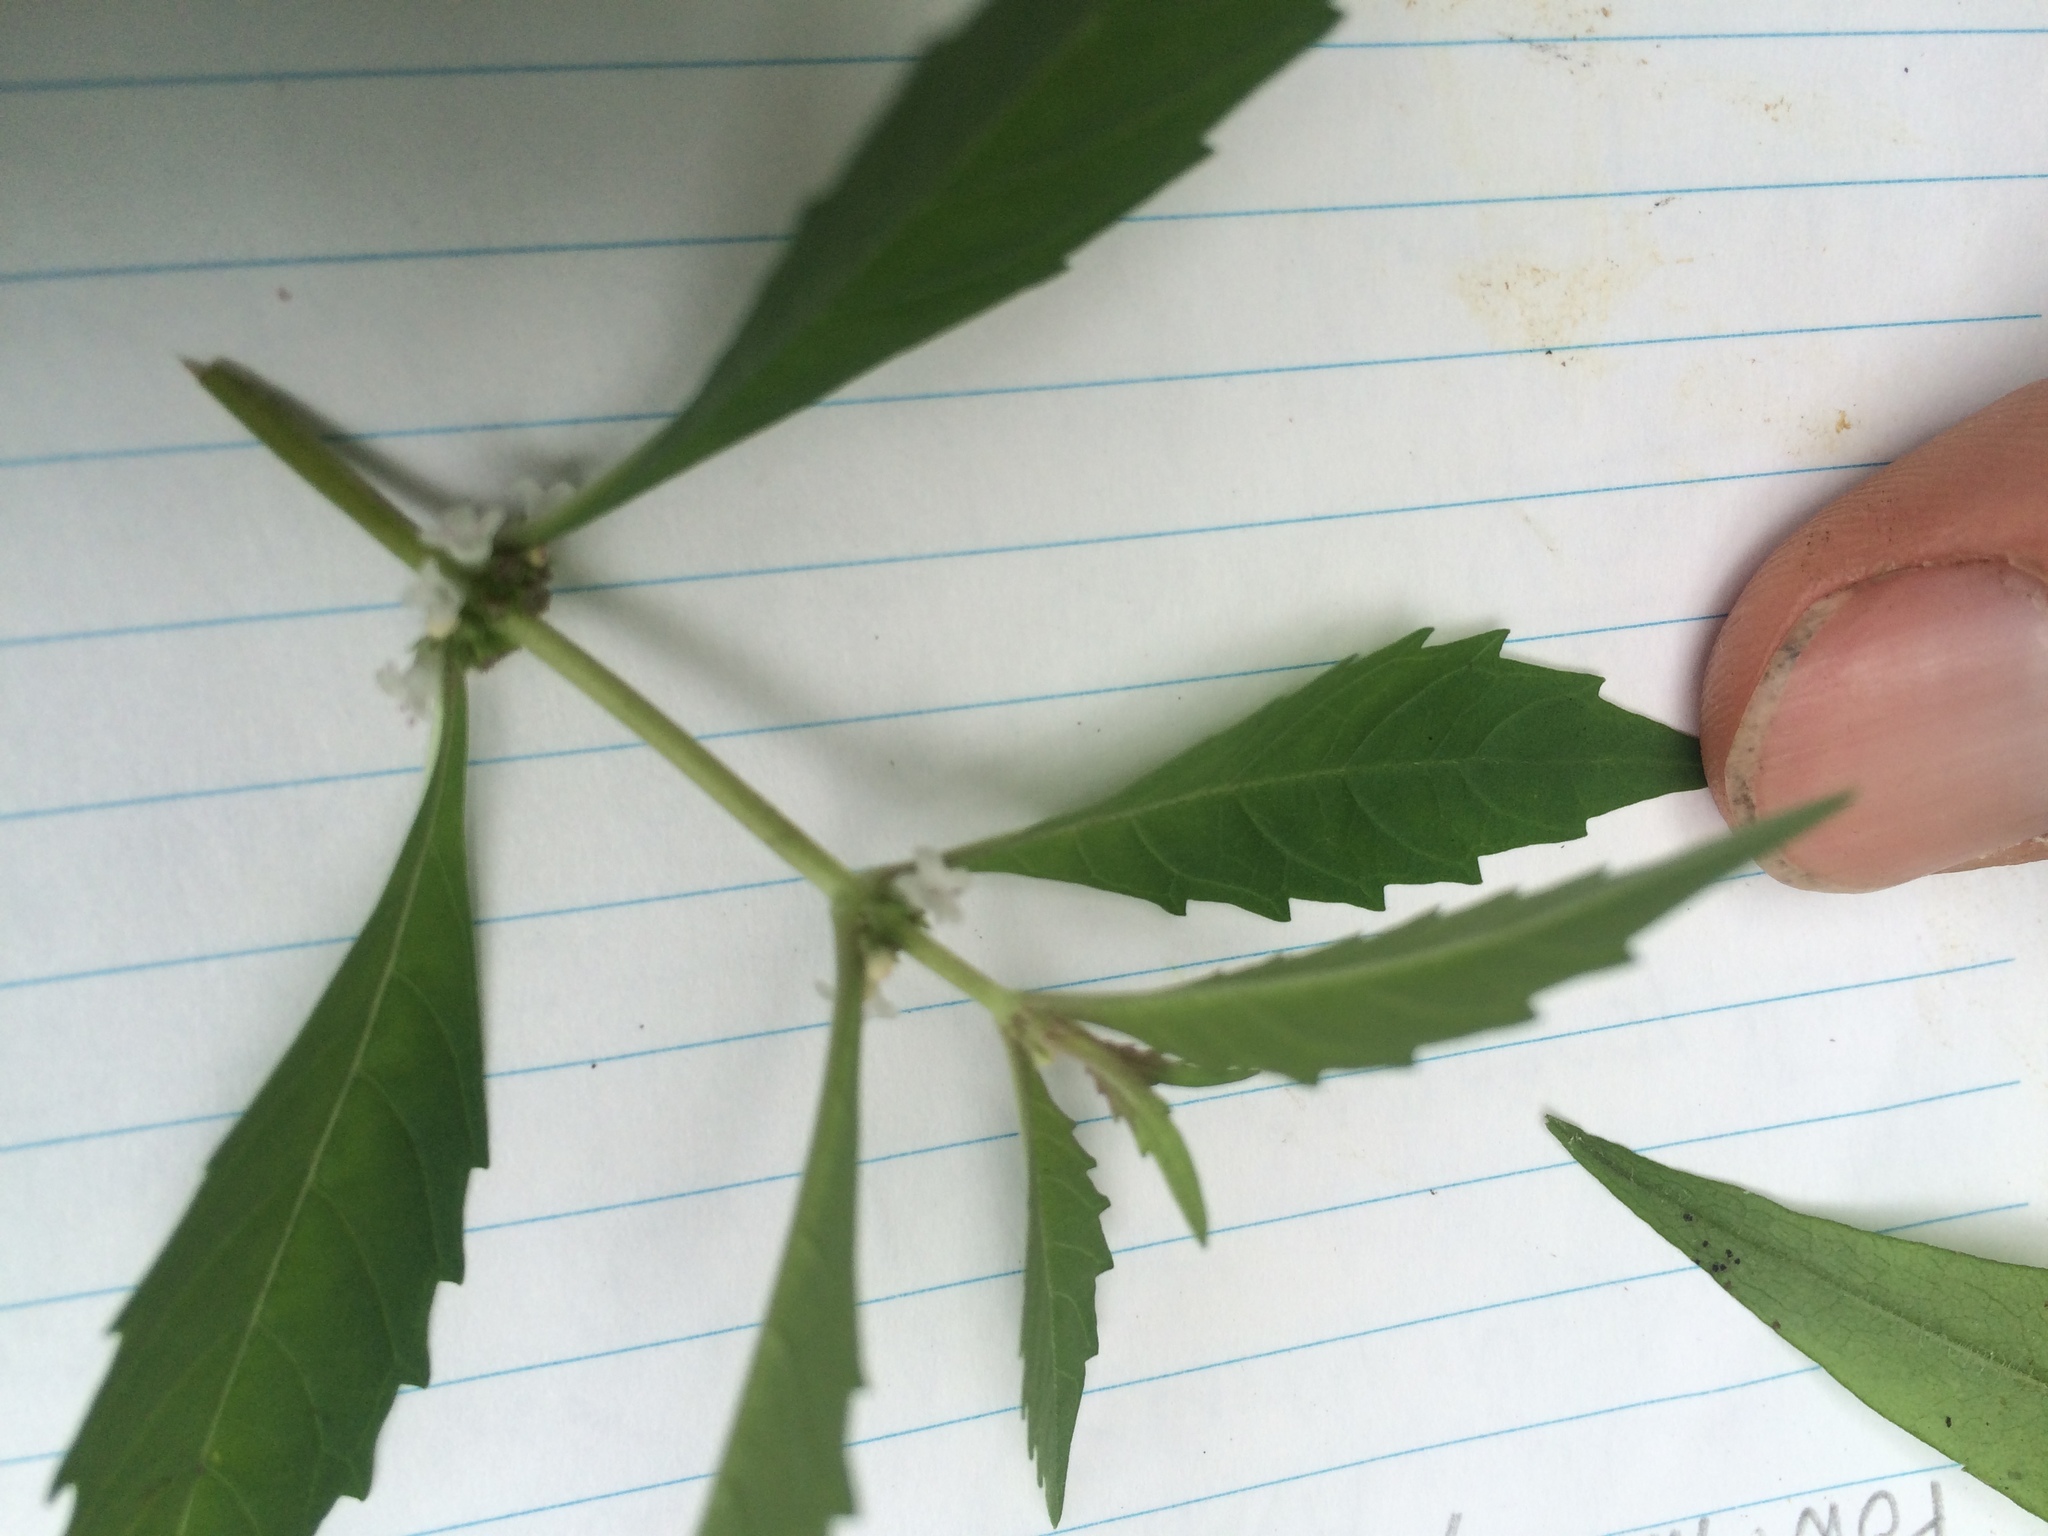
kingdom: Plantae
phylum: Tracheophyta
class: Magnoliopsida
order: Lamiales
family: Lamiaceae
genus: Lycopus
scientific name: Lycopus uniflorus
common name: Northern bugleweed
